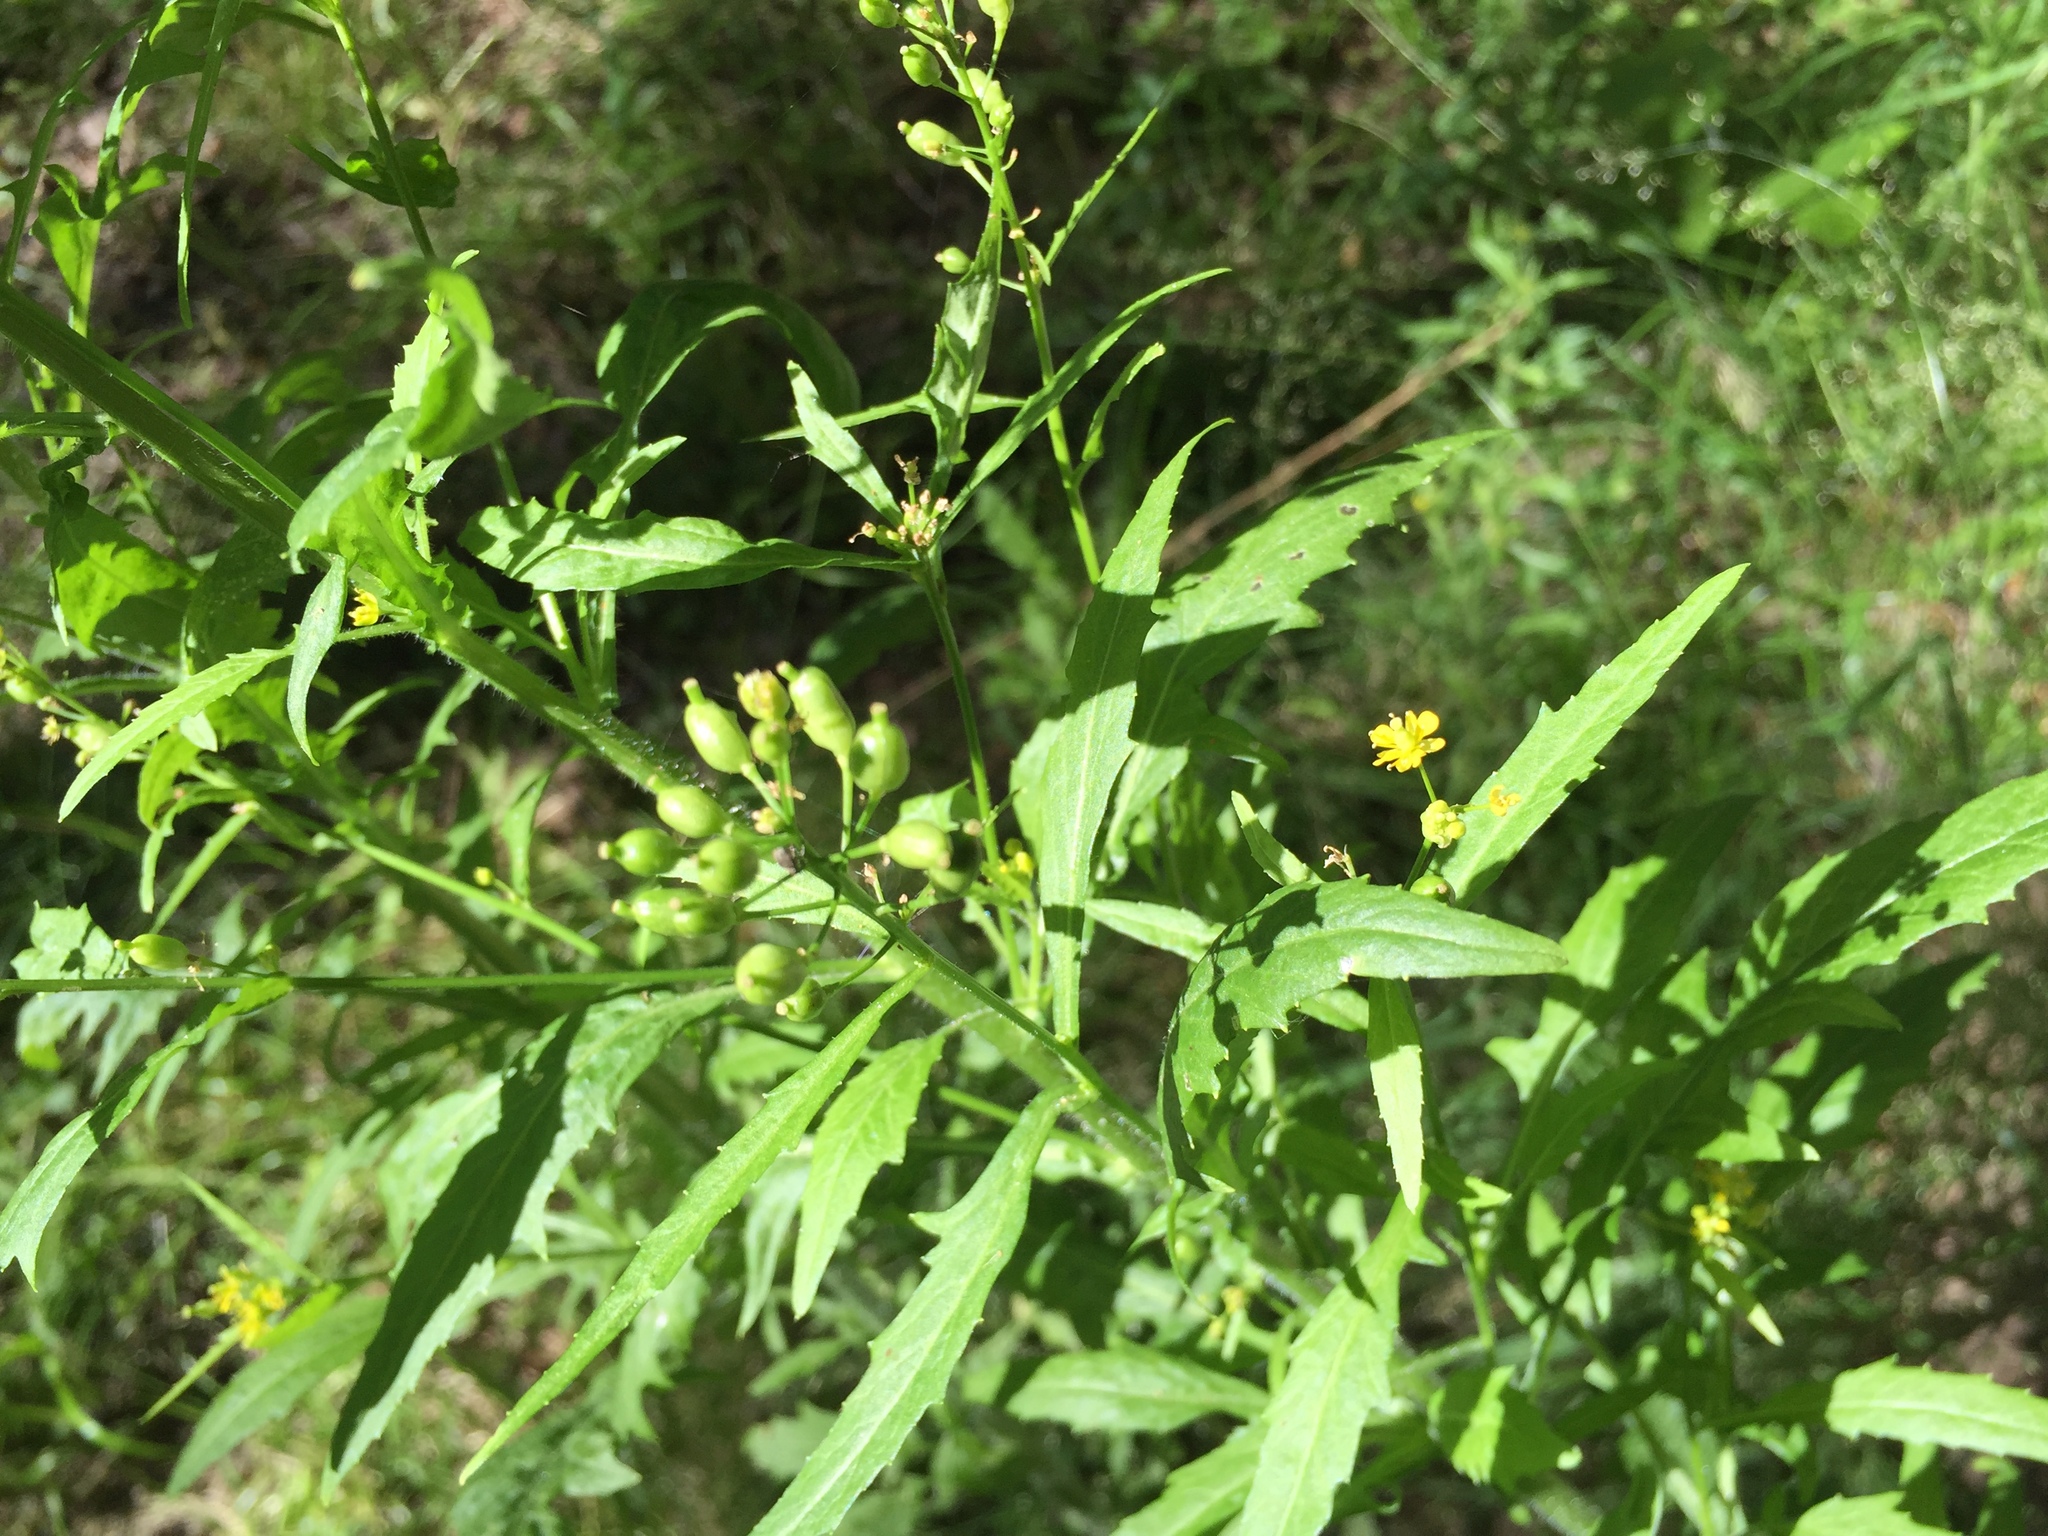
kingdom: Plantae
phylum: Tracheophyta
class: Magnoliopsida
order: Brassicales
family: Brassicaceae
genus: Rorippa
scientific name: Rorippa barbareifolia
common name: Hoary yellowcress
